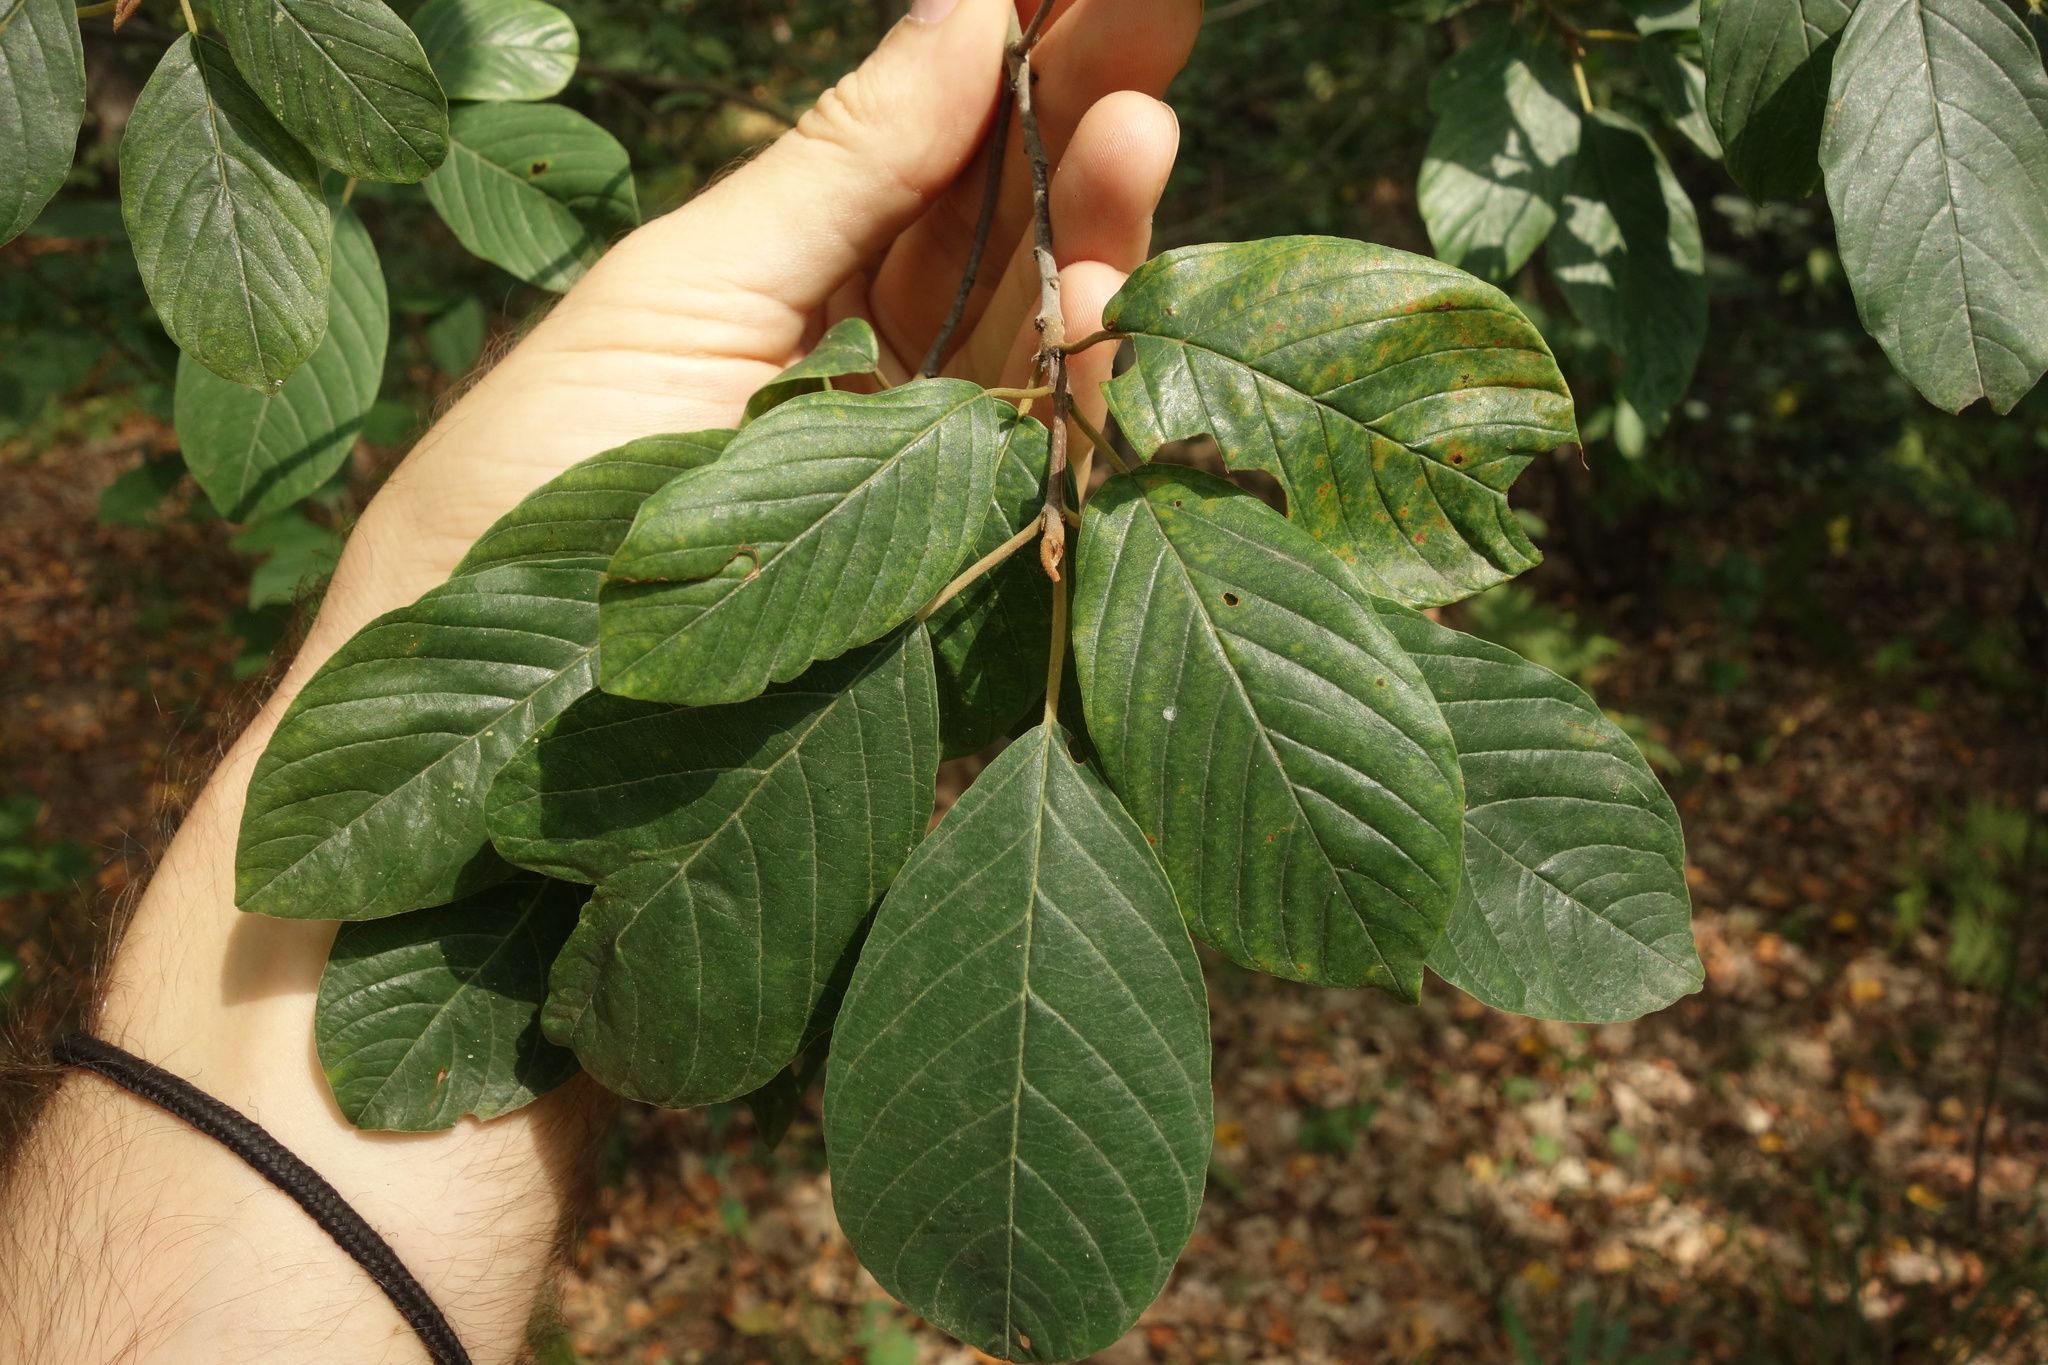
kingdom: Plantae
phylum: Tracheophyta
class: Magnoliopsida
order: Rosales
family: Rhamnaceae
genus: Frangula
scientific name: Frangula alnus
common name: Alder buckthorn
